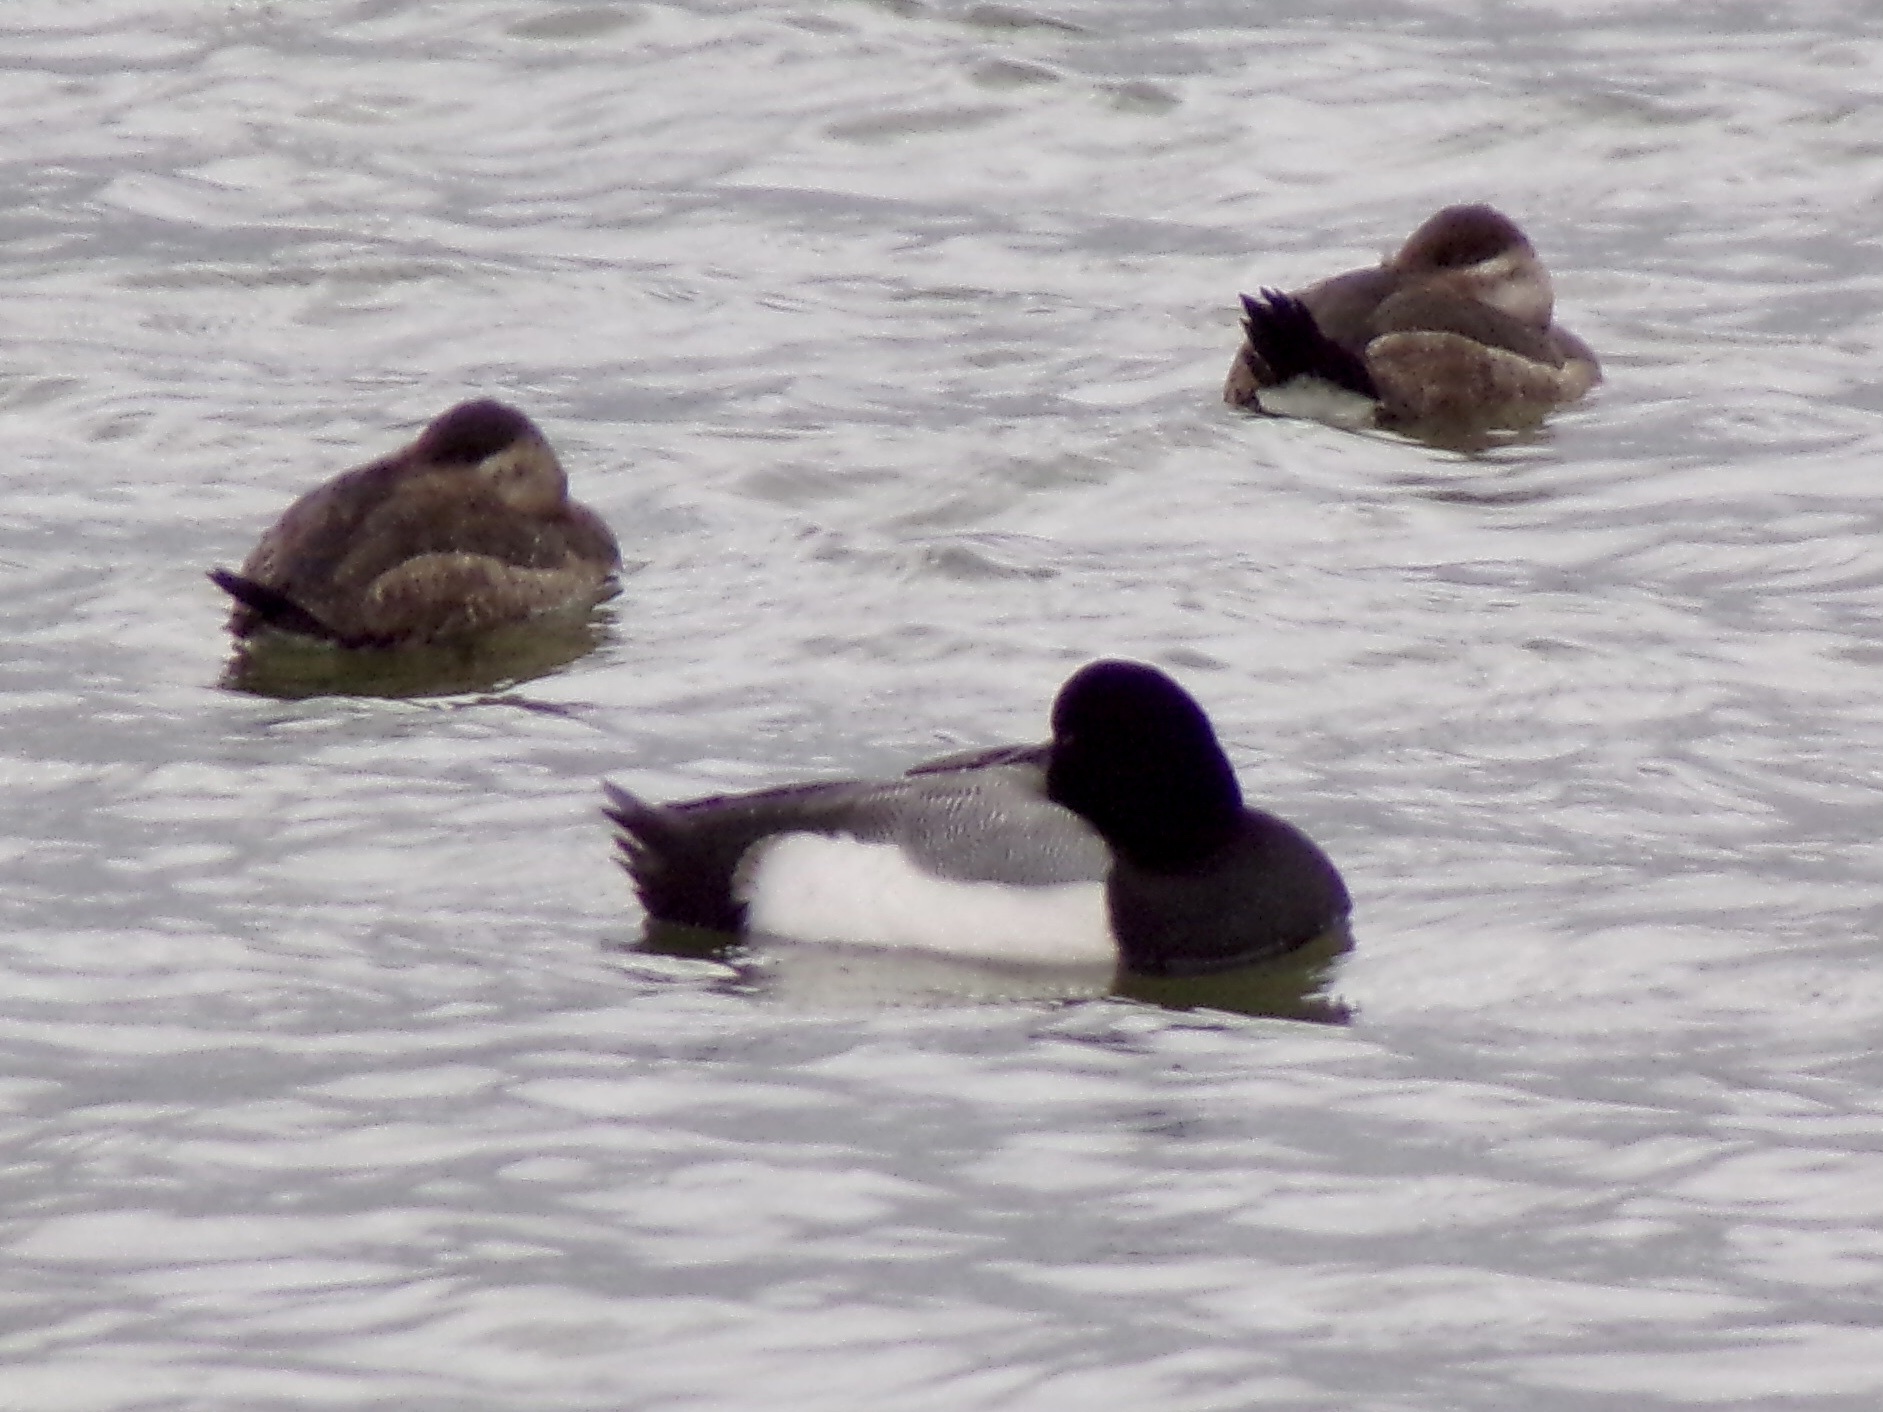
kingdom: Animalia
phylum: Chordata
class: Aves
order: Anseriformes
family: Anatidae
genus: Aythya
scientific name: Aythya marila
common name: Greater scaup
